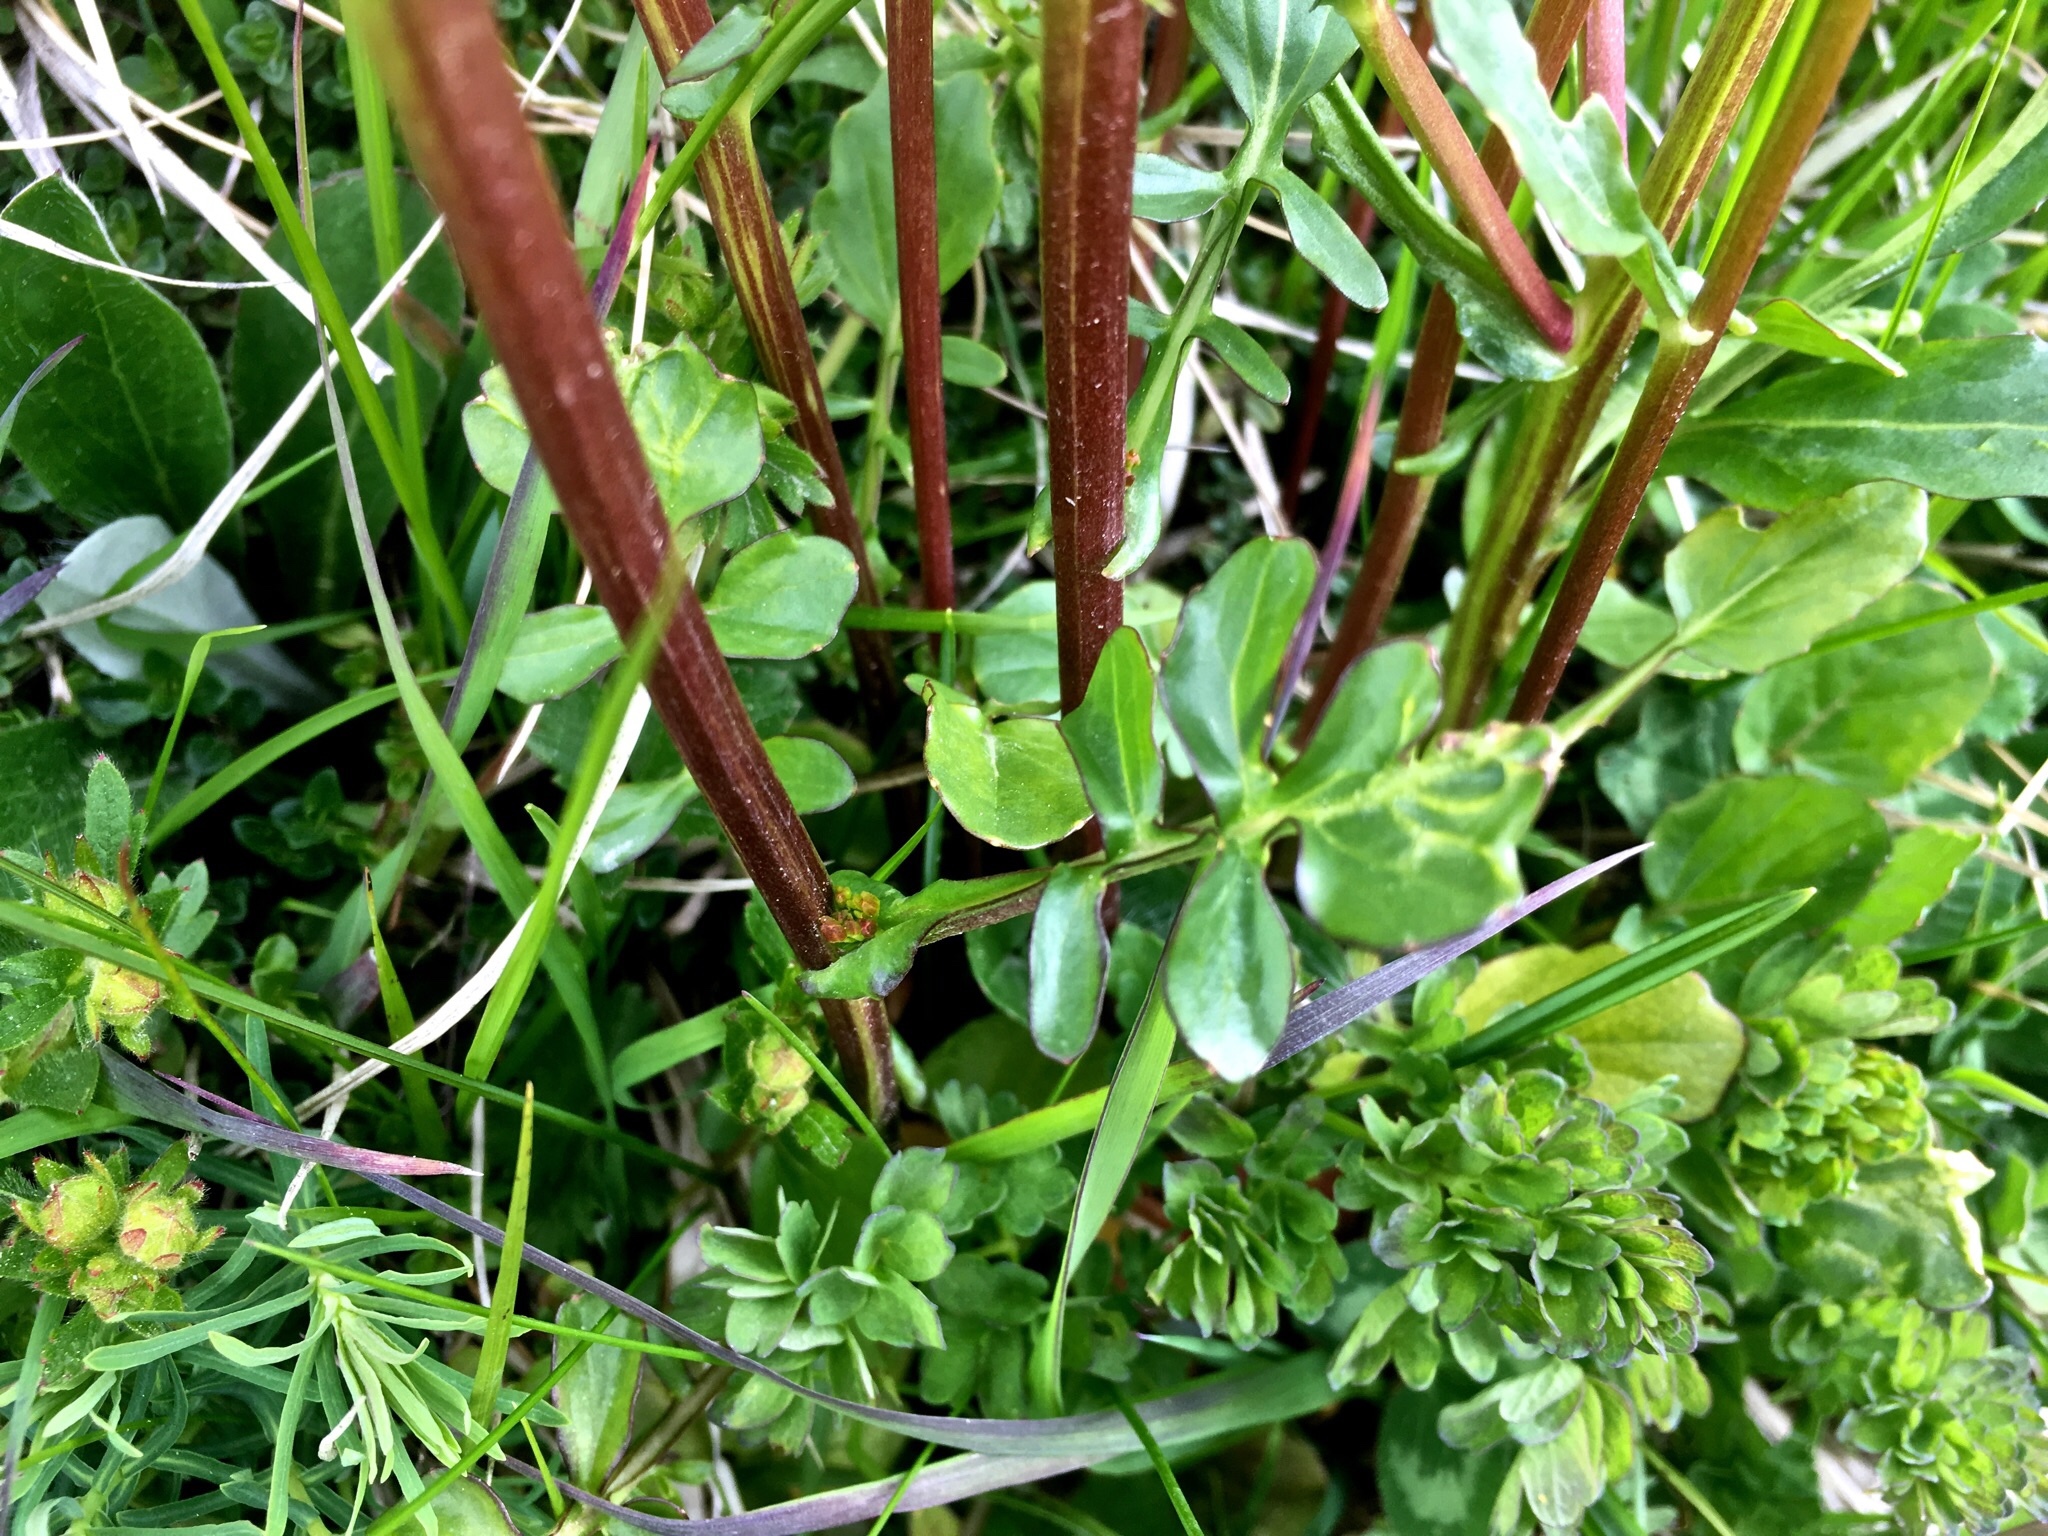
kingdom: Plantae
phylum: Tracheophyta
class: Magnoliopsida
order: Brassicales
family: Brassicaceae
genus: Barbarea
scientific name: Barbarea vulgaris
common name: Cressy-greens
